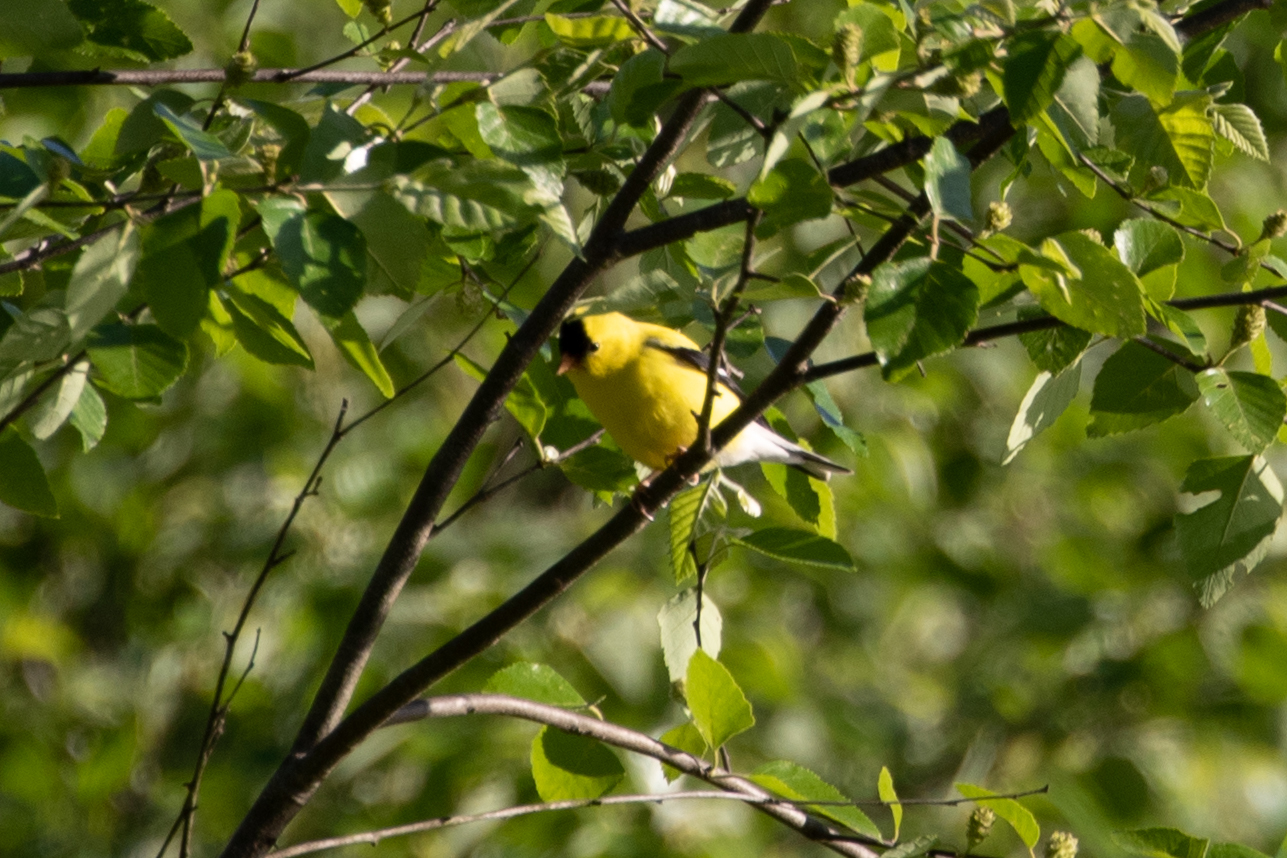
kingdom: Animalia
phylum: Chordata
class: Aves
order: Passeriformes
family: Fringillidae
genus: Spinus
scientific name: Spinus tristis
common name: American goldfinch
